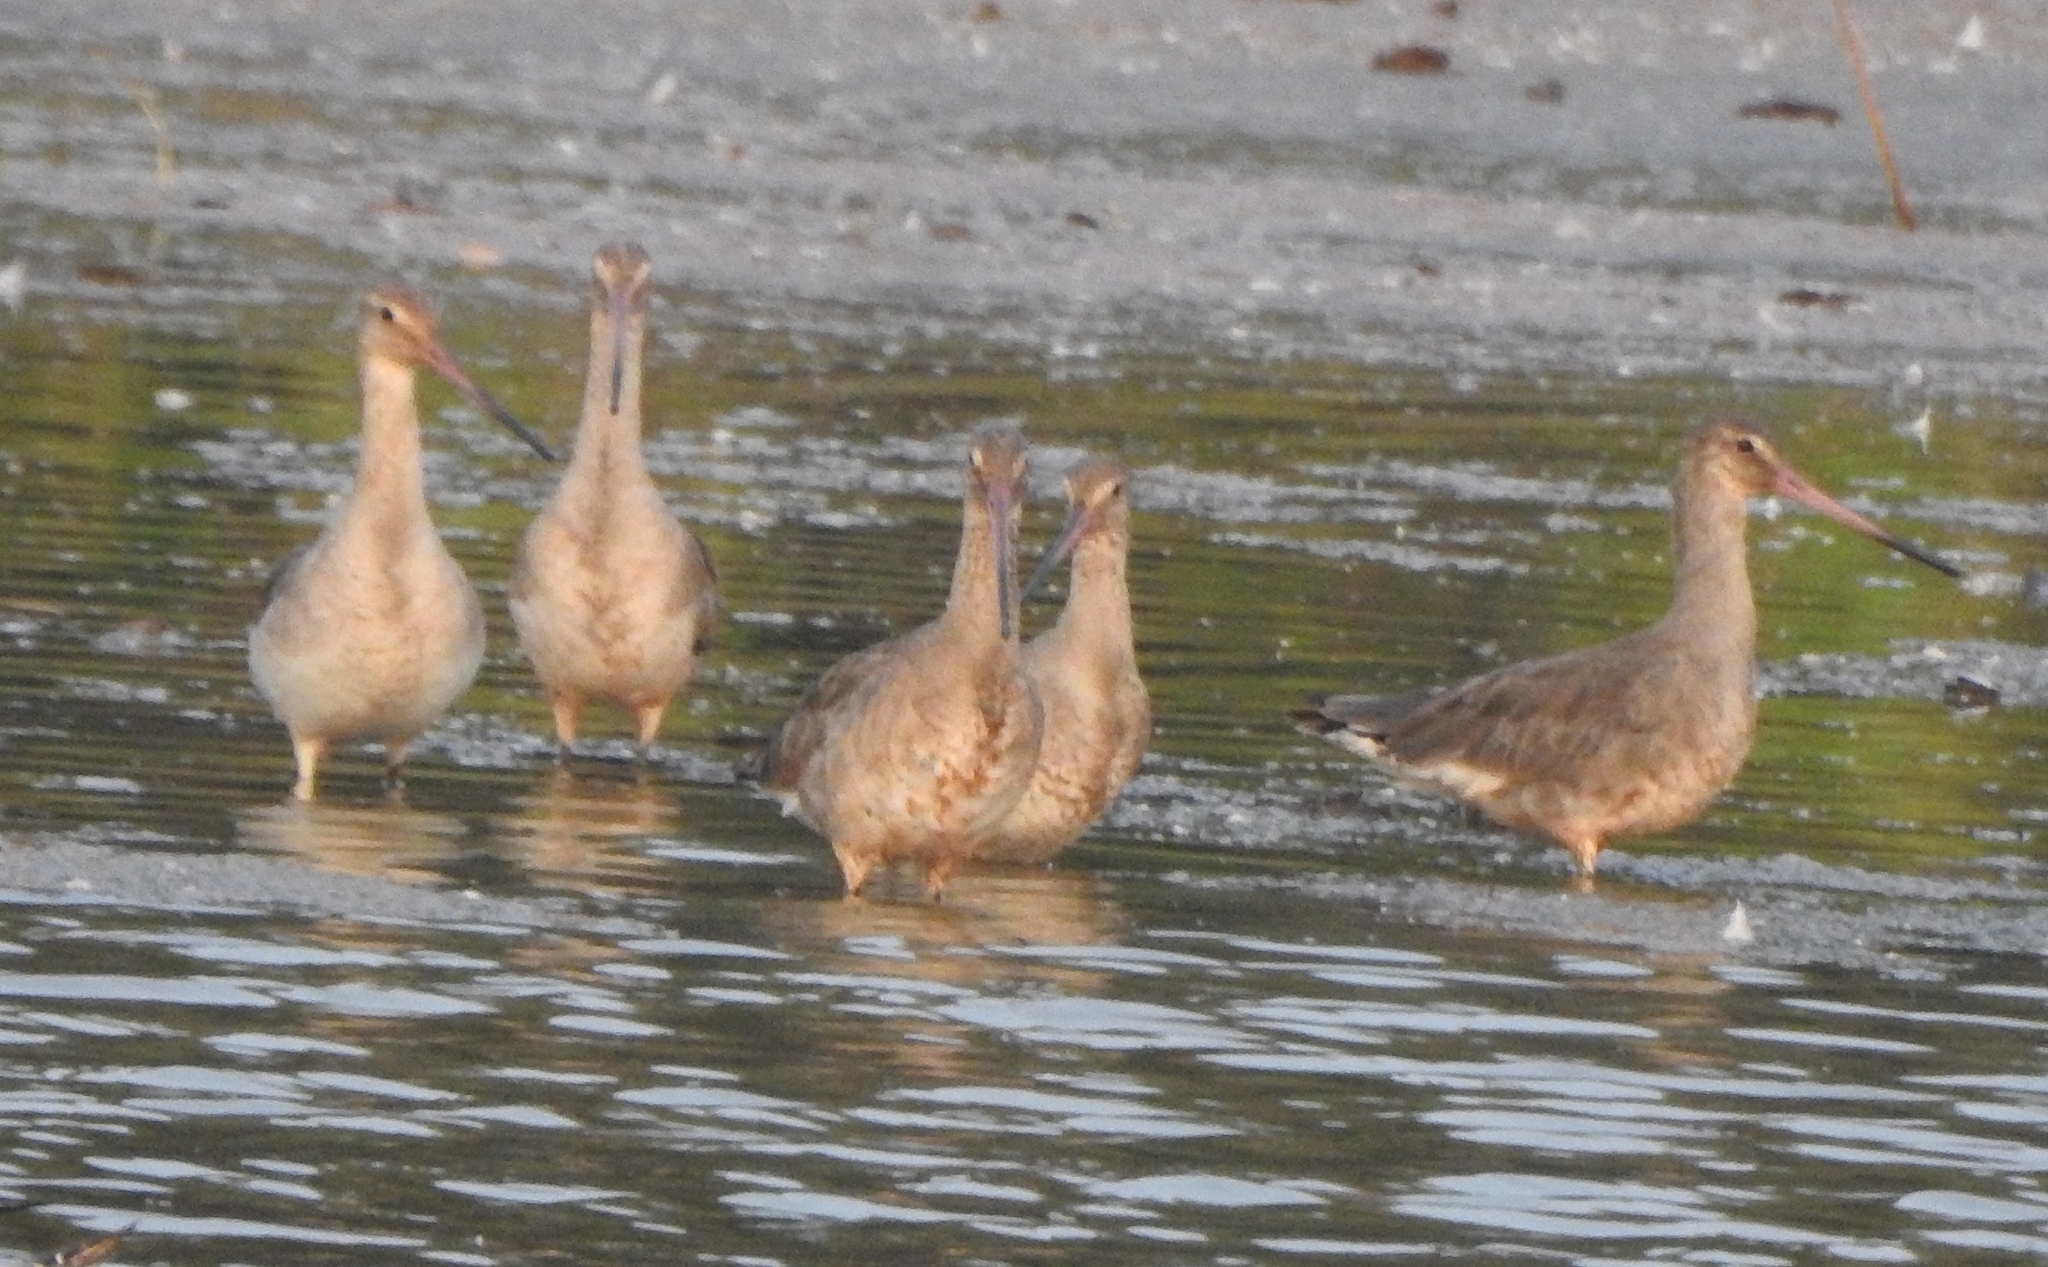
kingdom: Animalia
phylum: Chordata
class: Aves
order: Charadriiformes
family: Scolopacidae
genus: Limosa
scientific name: Limosa limosa
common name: Black-tailed godwit
